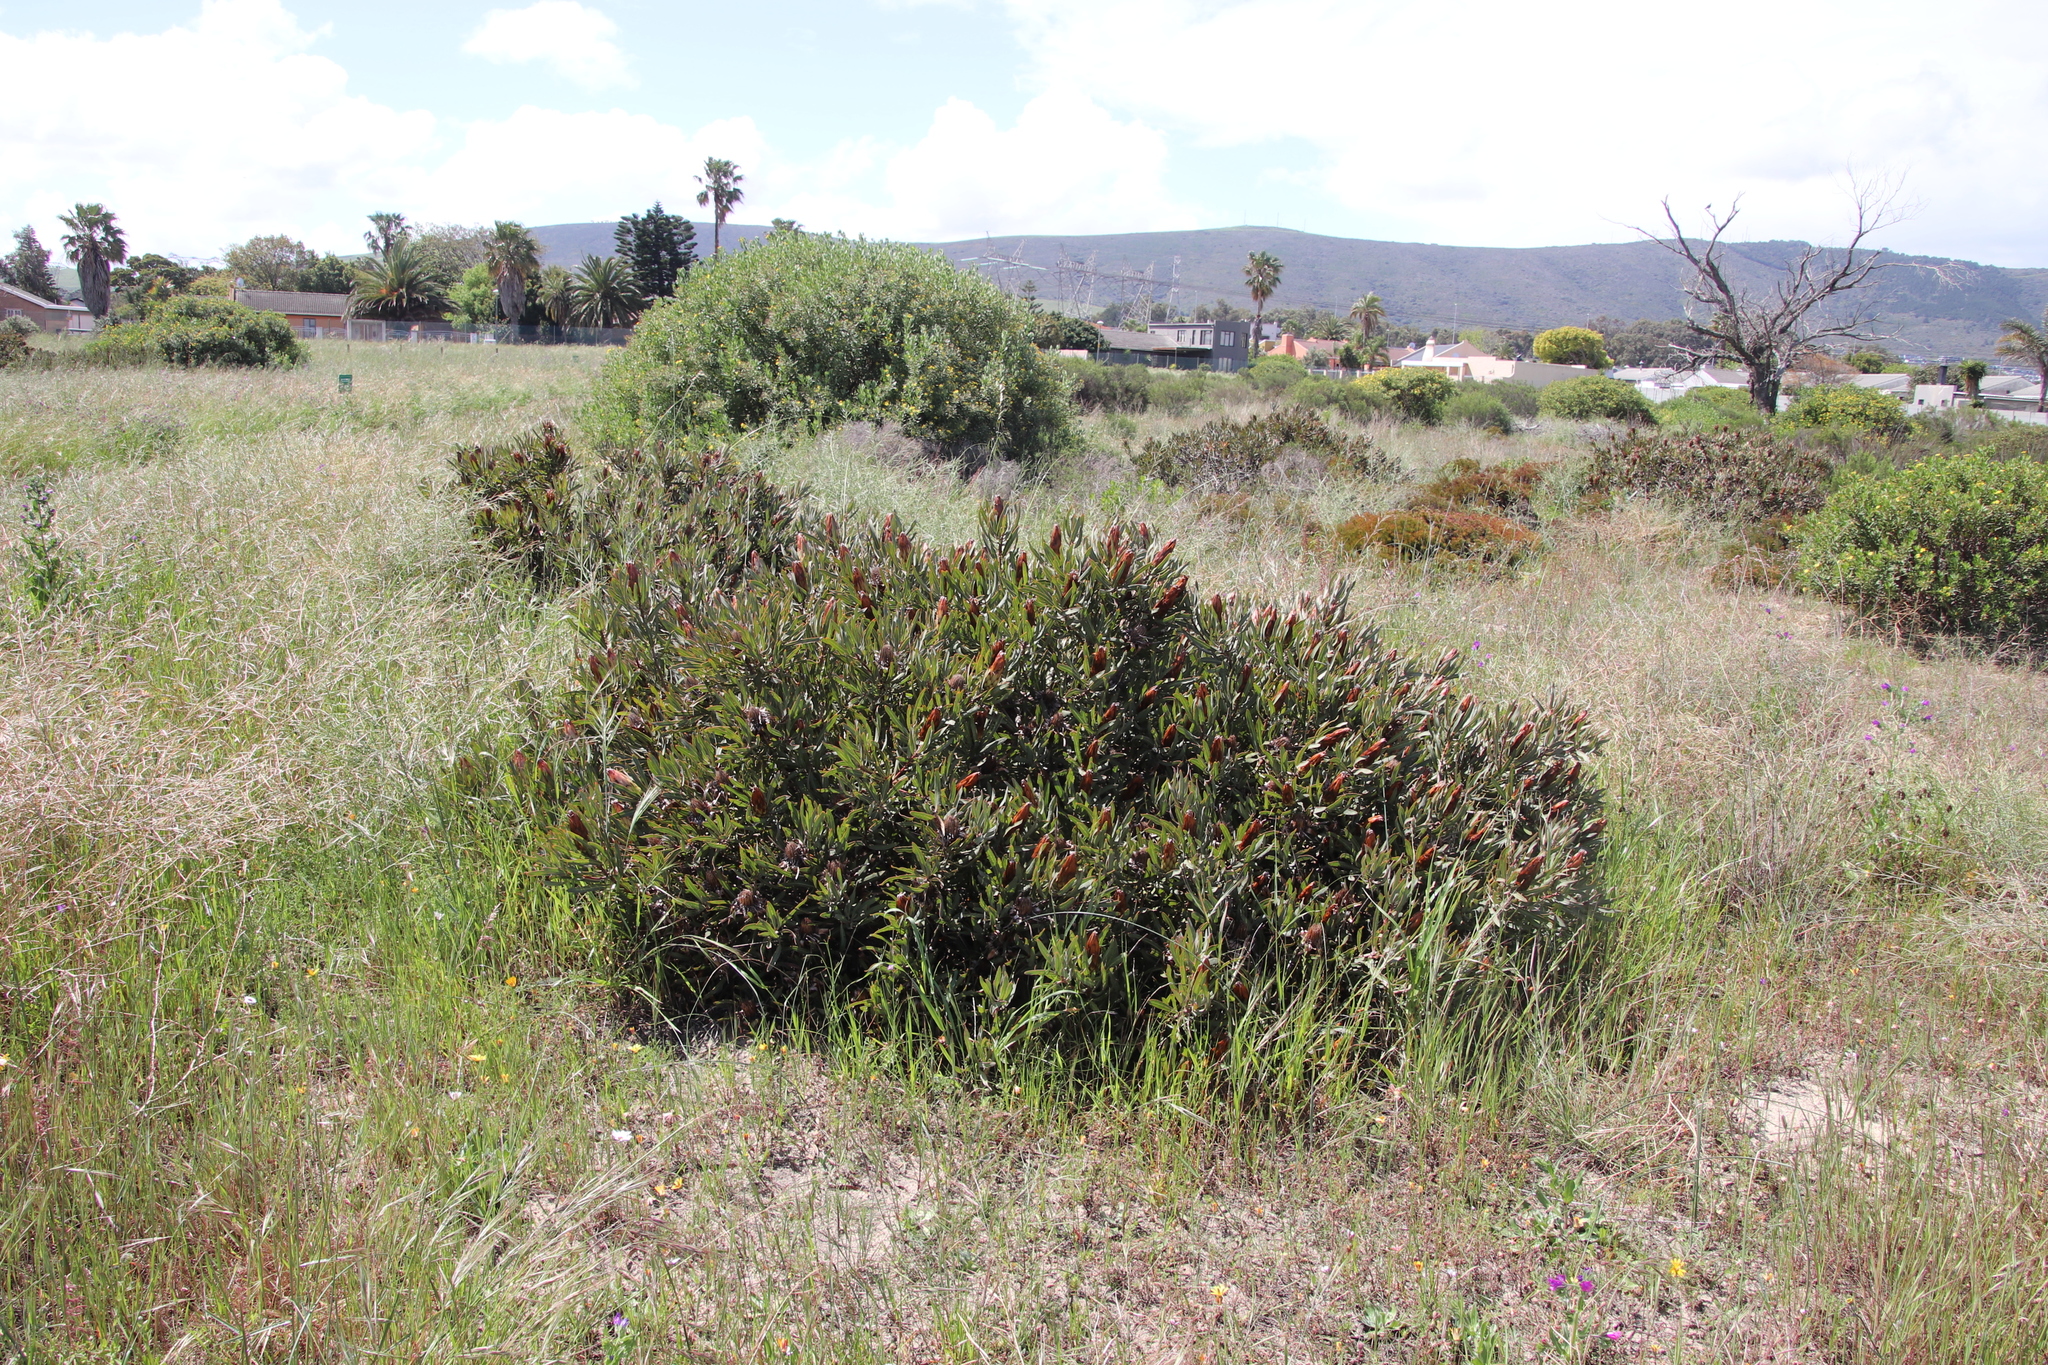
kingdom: Plantae
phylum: Tracheophyta
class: Magnoliopsida
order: Proteales
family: Proteaceae
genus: Protea
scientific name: Protea burchellii
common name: Burchell's sugarbush
